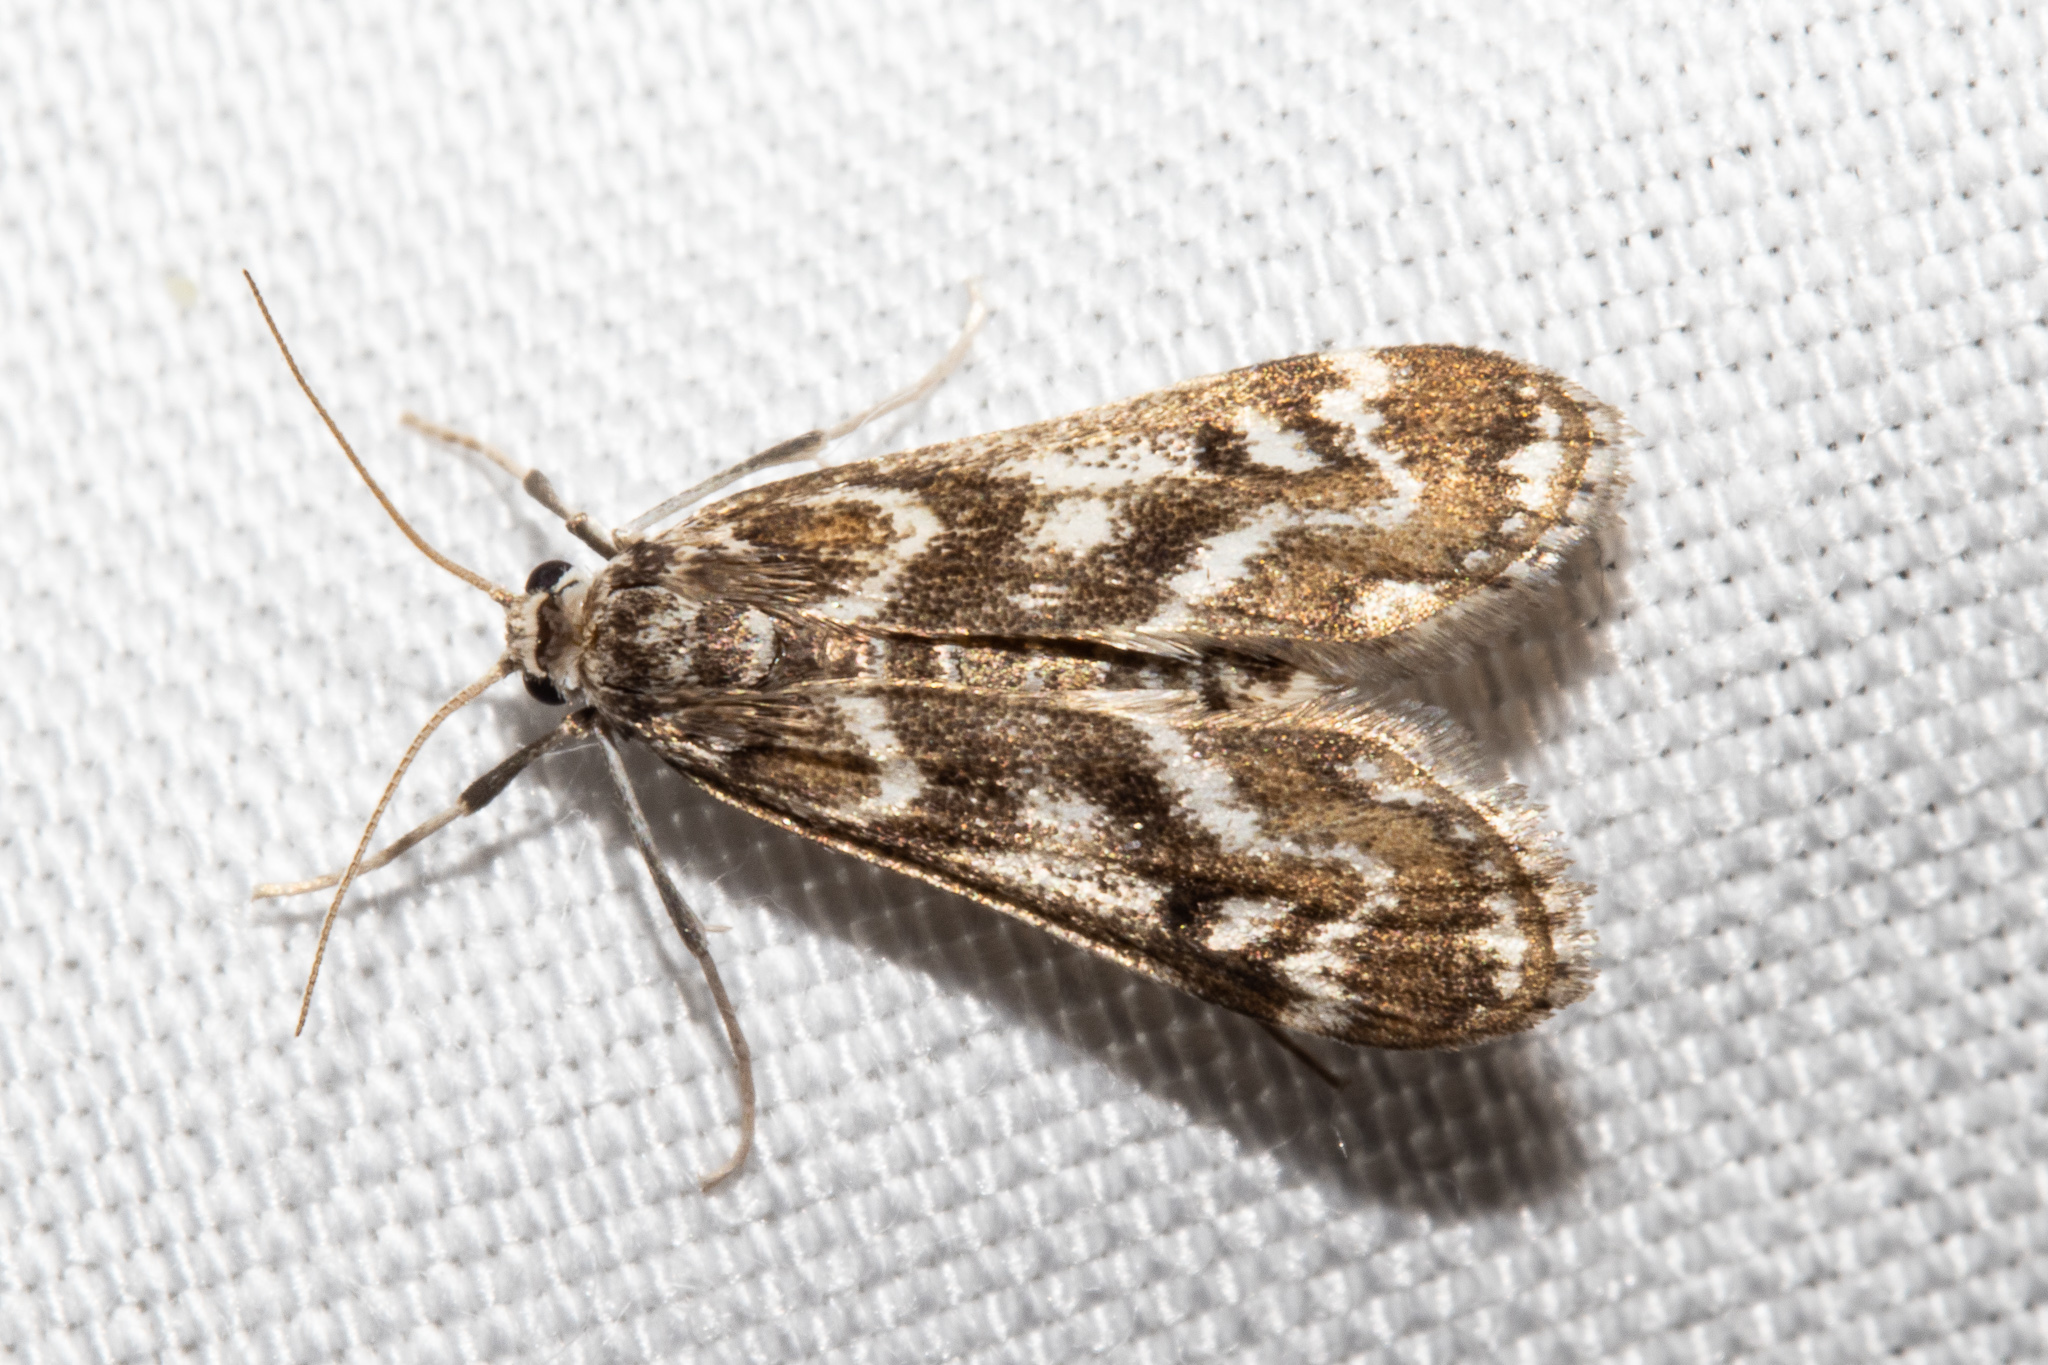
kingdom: Animalia
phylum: Arthropoda
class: Insecta
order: Lepidoptera
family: Crambidae
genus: Hygraula
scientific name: Hygraula nitens
